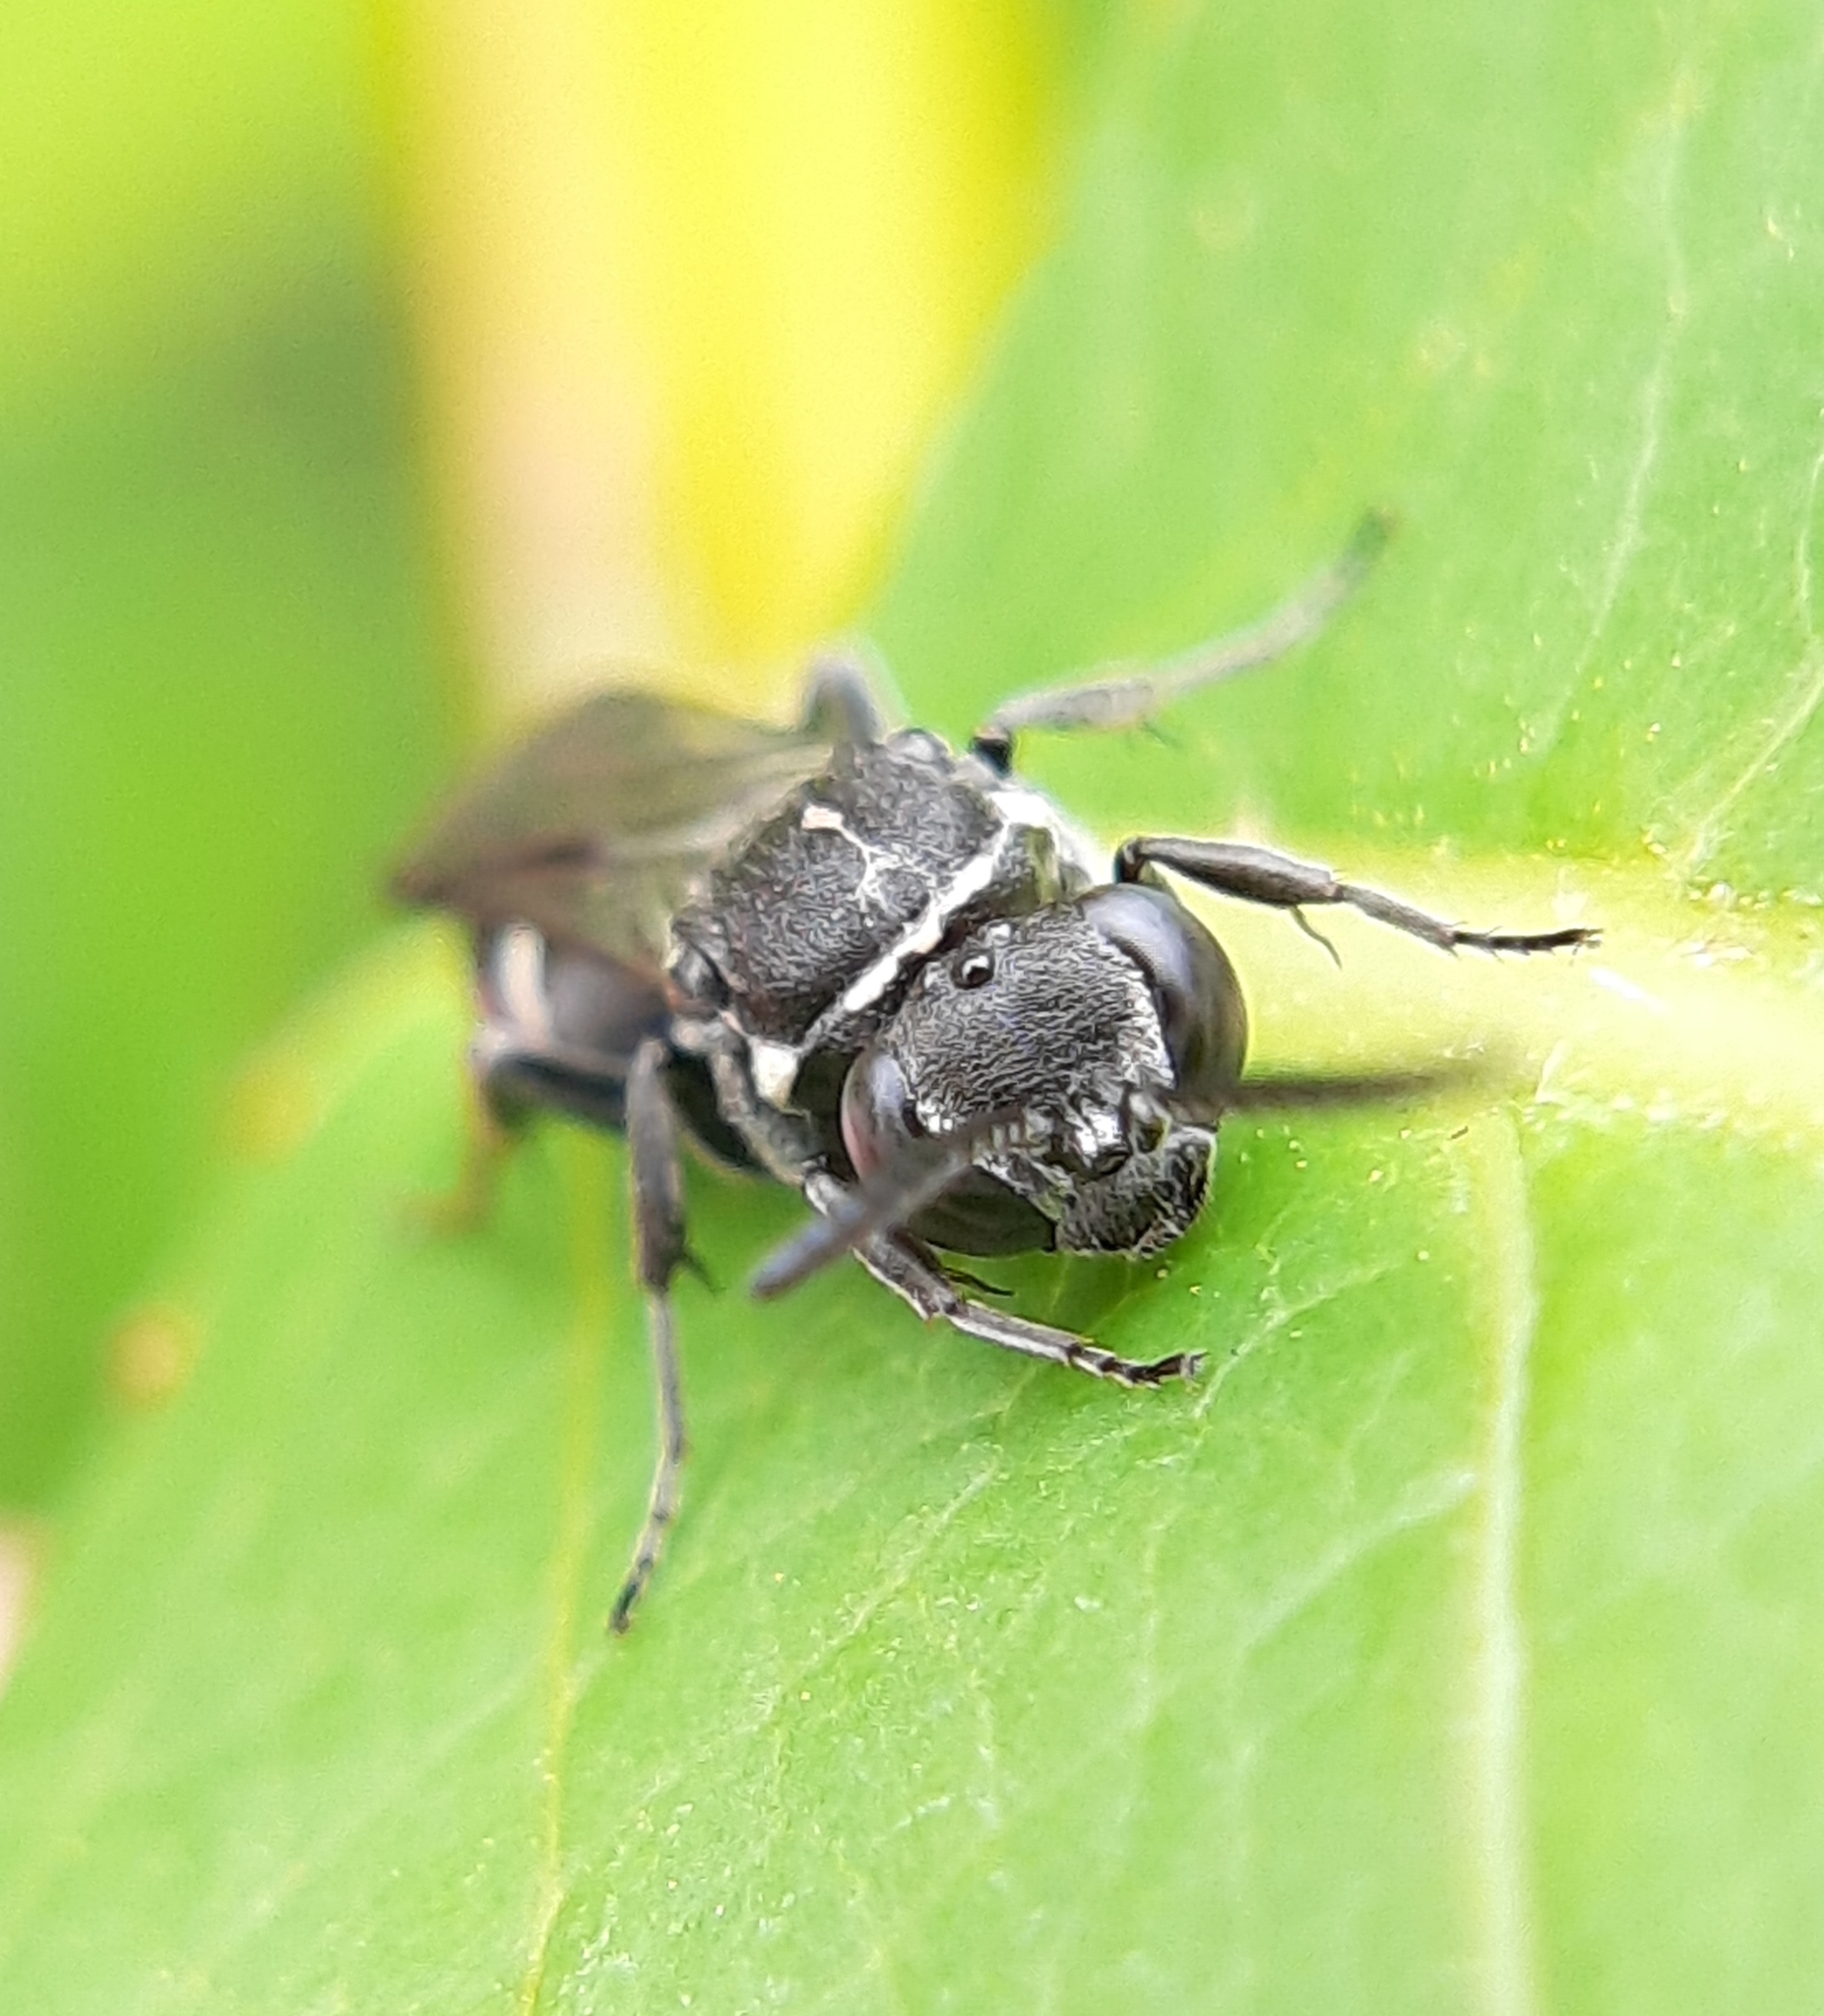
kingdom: Animalia
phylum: Arthropoda
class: Insecta
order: Hymenoptera
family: Crabronidae
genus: Nysson
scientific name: Nysson lateralis
